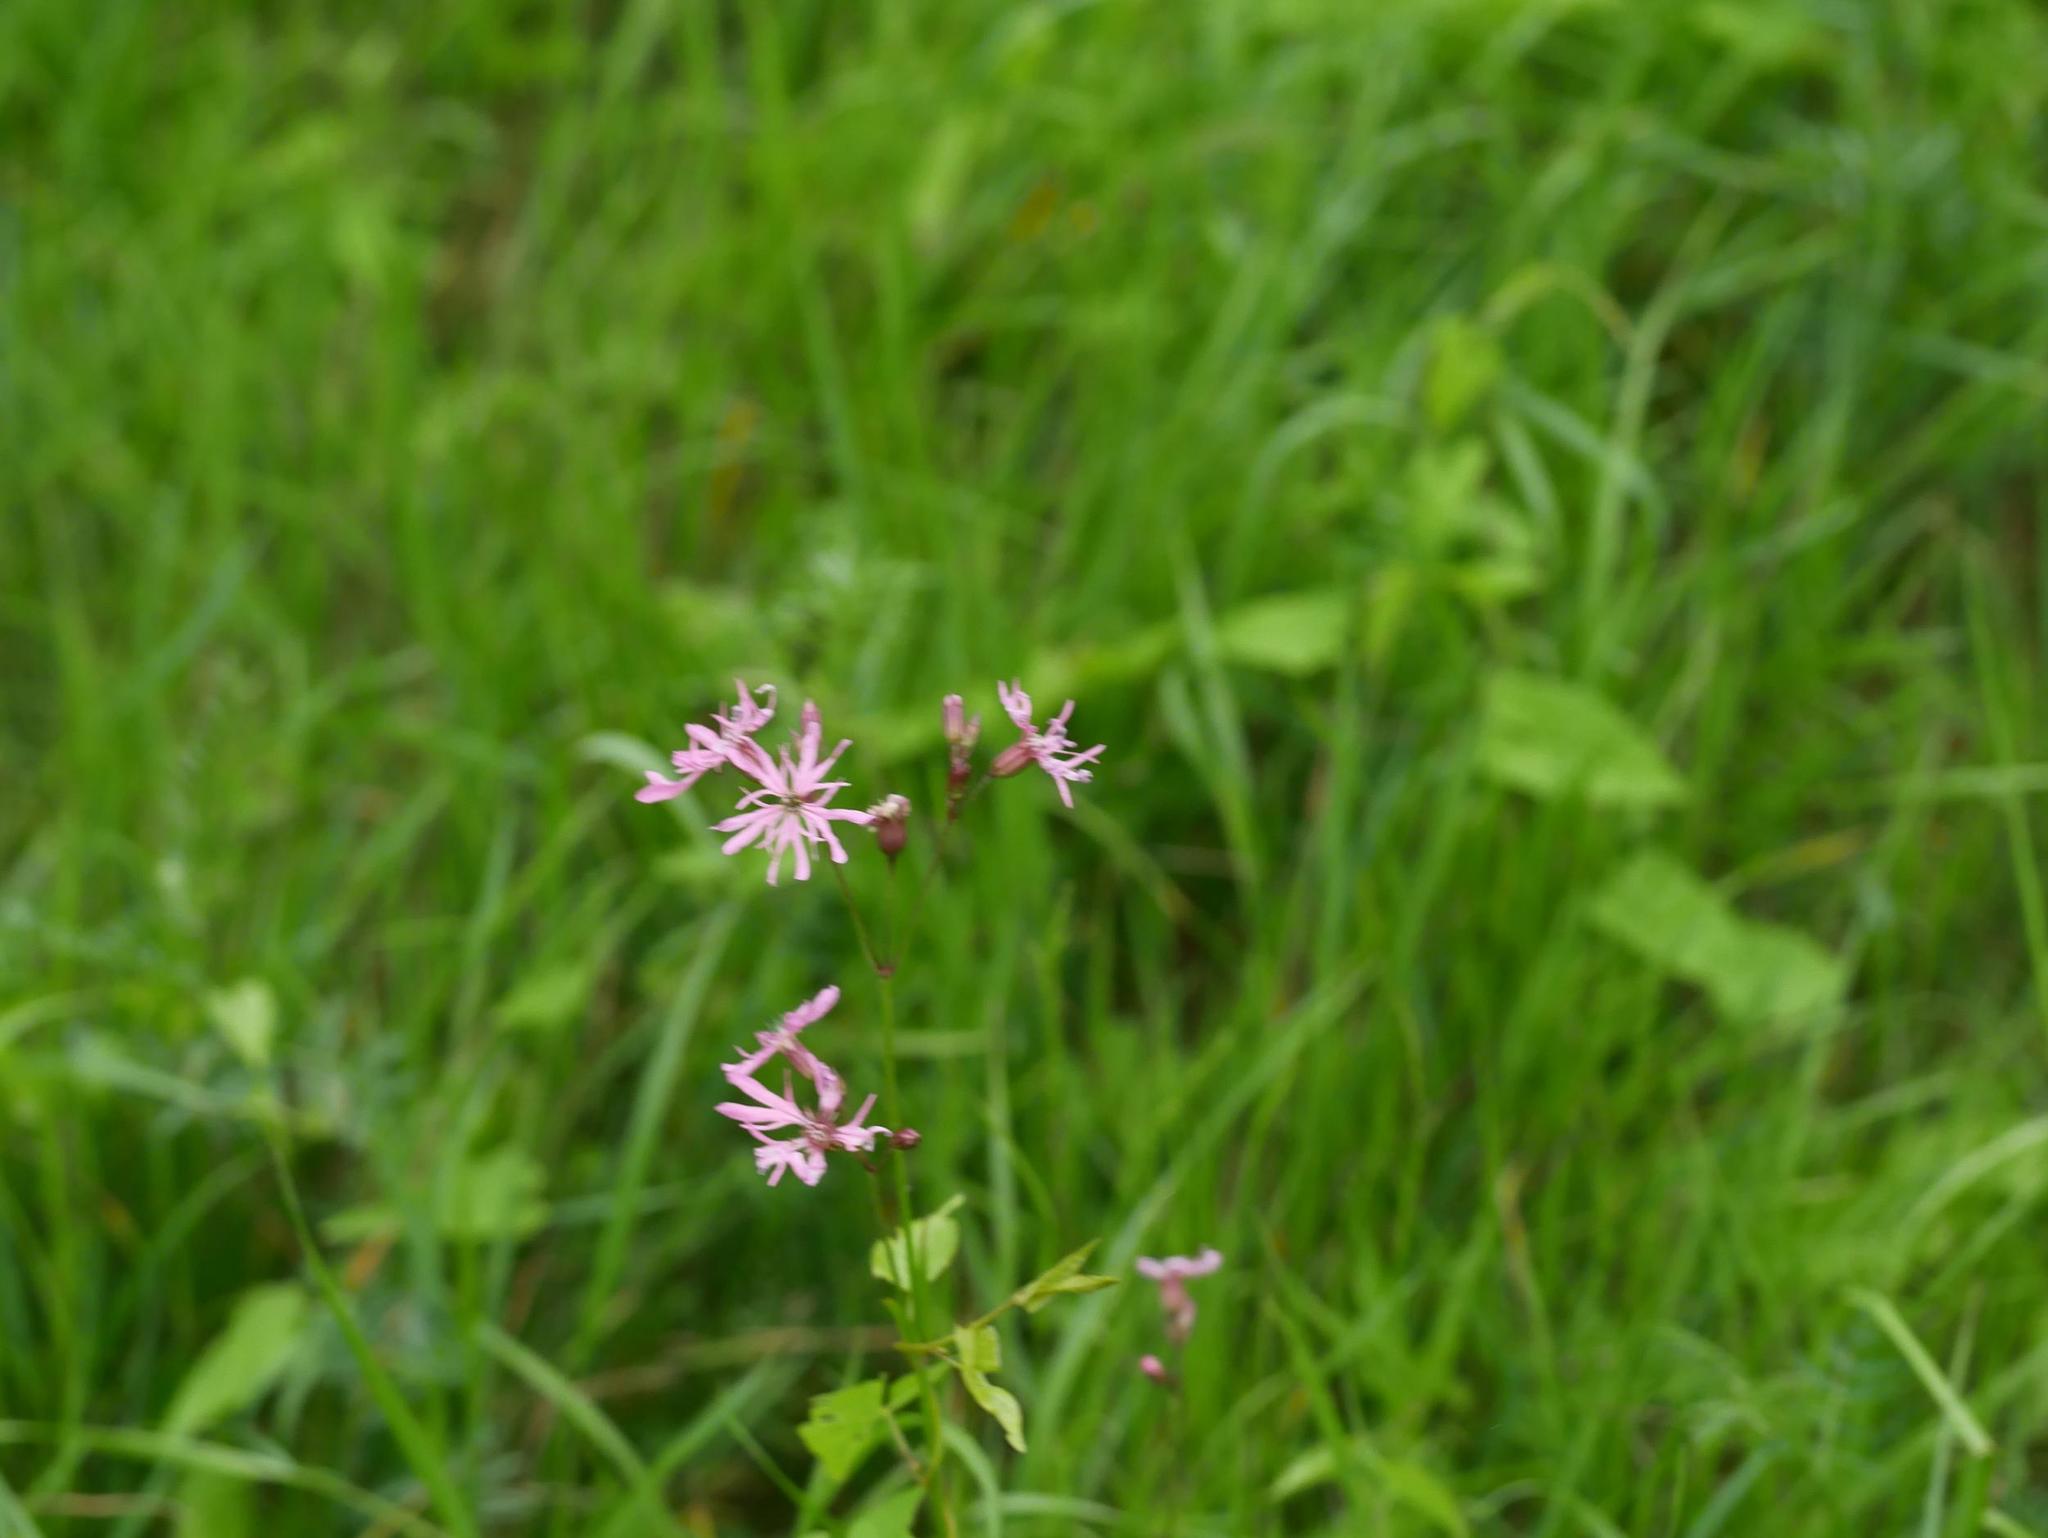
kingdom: Plantae
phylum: Tracheophyta
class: Magnoliopsida
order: Caryophyllales
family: Caryophyllaceae
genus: Silene
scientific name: Silene flos-cuculi
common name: Ragged-robin
